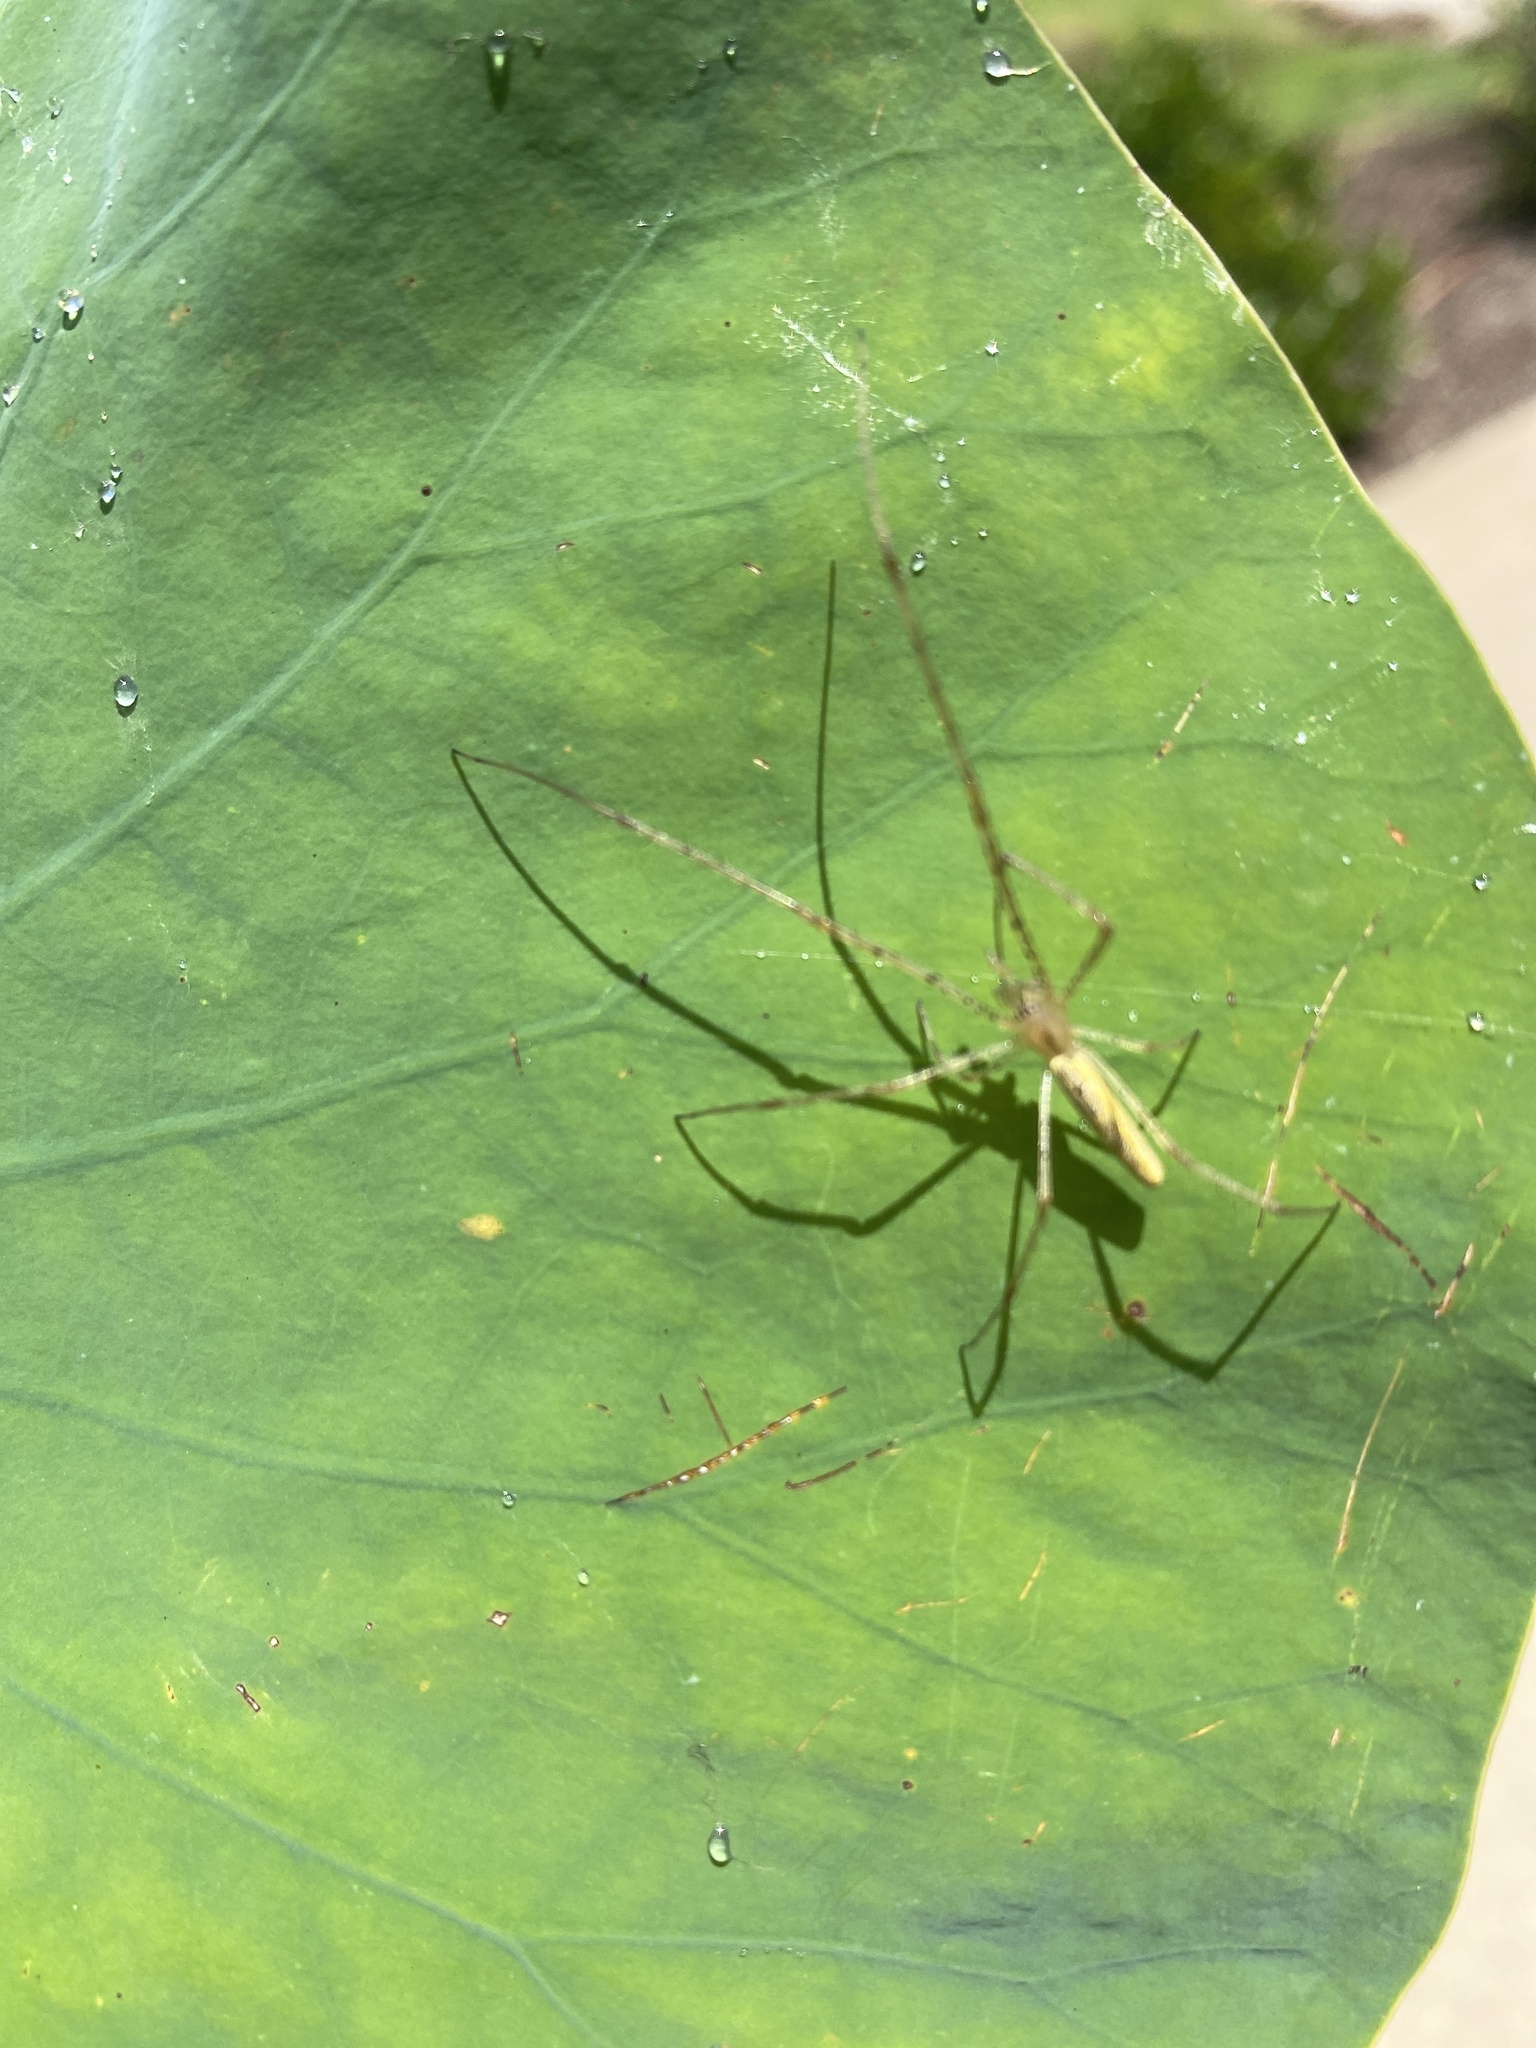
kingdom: Animalia
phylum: Arthropoda
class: Arachnida
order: Araneae
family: Tetragnathidae
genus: Tetragnatha
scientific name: Tetragnatha
